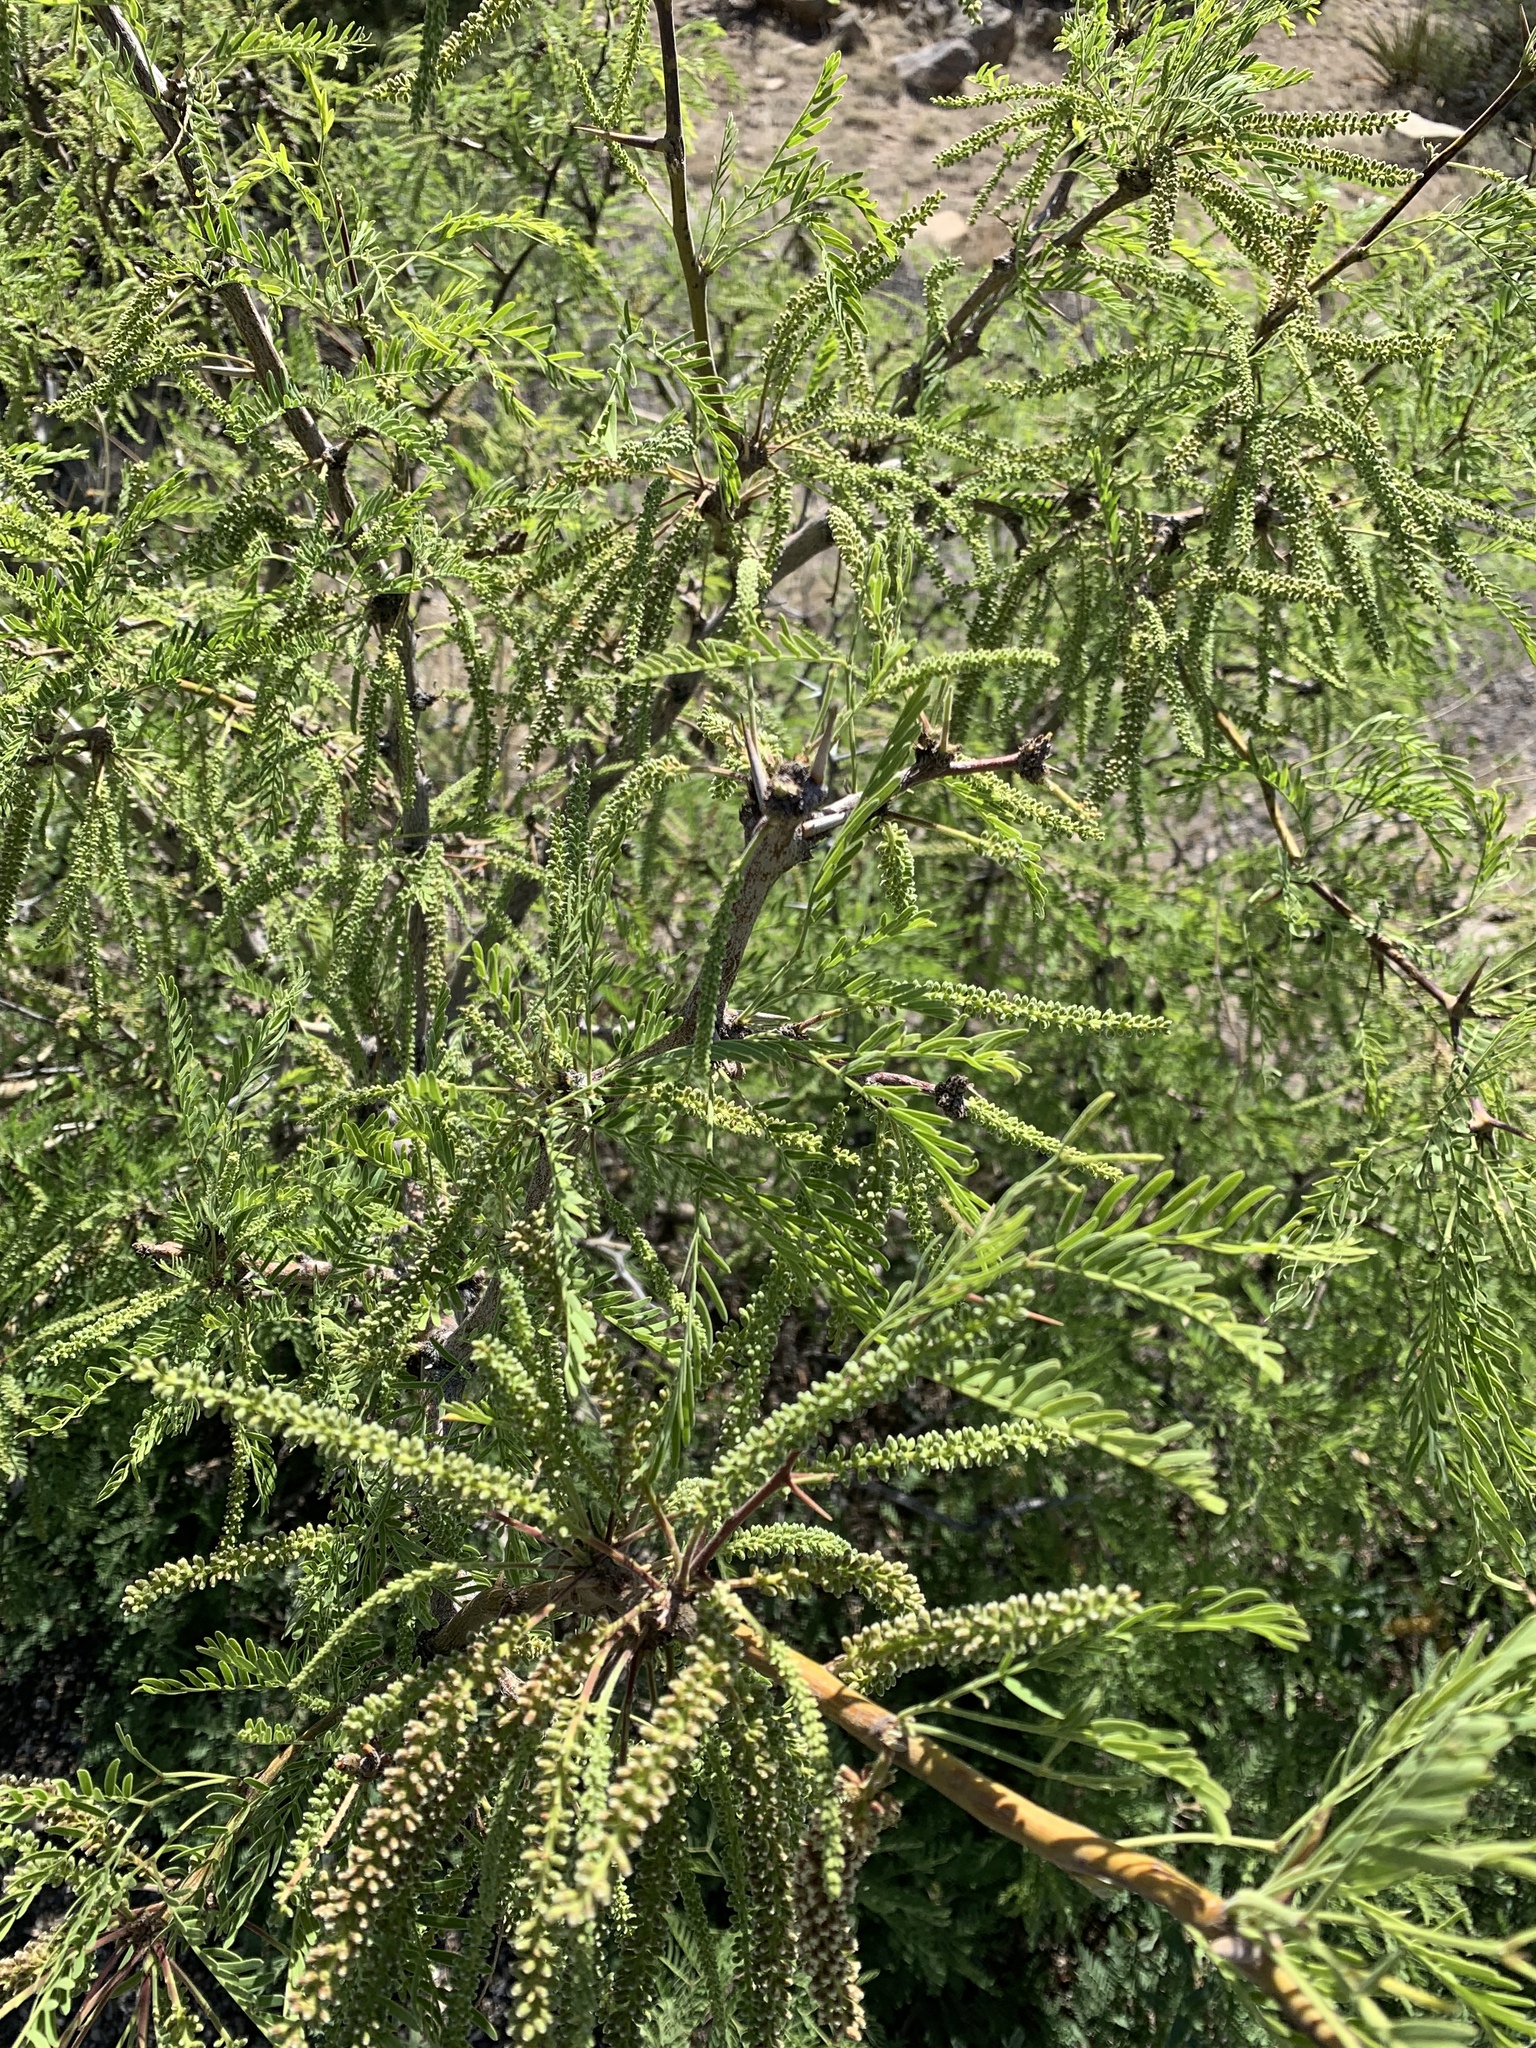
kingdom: Plantae
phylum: Tracheophyta
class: Magnoliopsida
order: Fabales
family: Fabaceae
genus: Prosopis
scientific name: Prosopis glandulosa
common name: Honey mesquite
